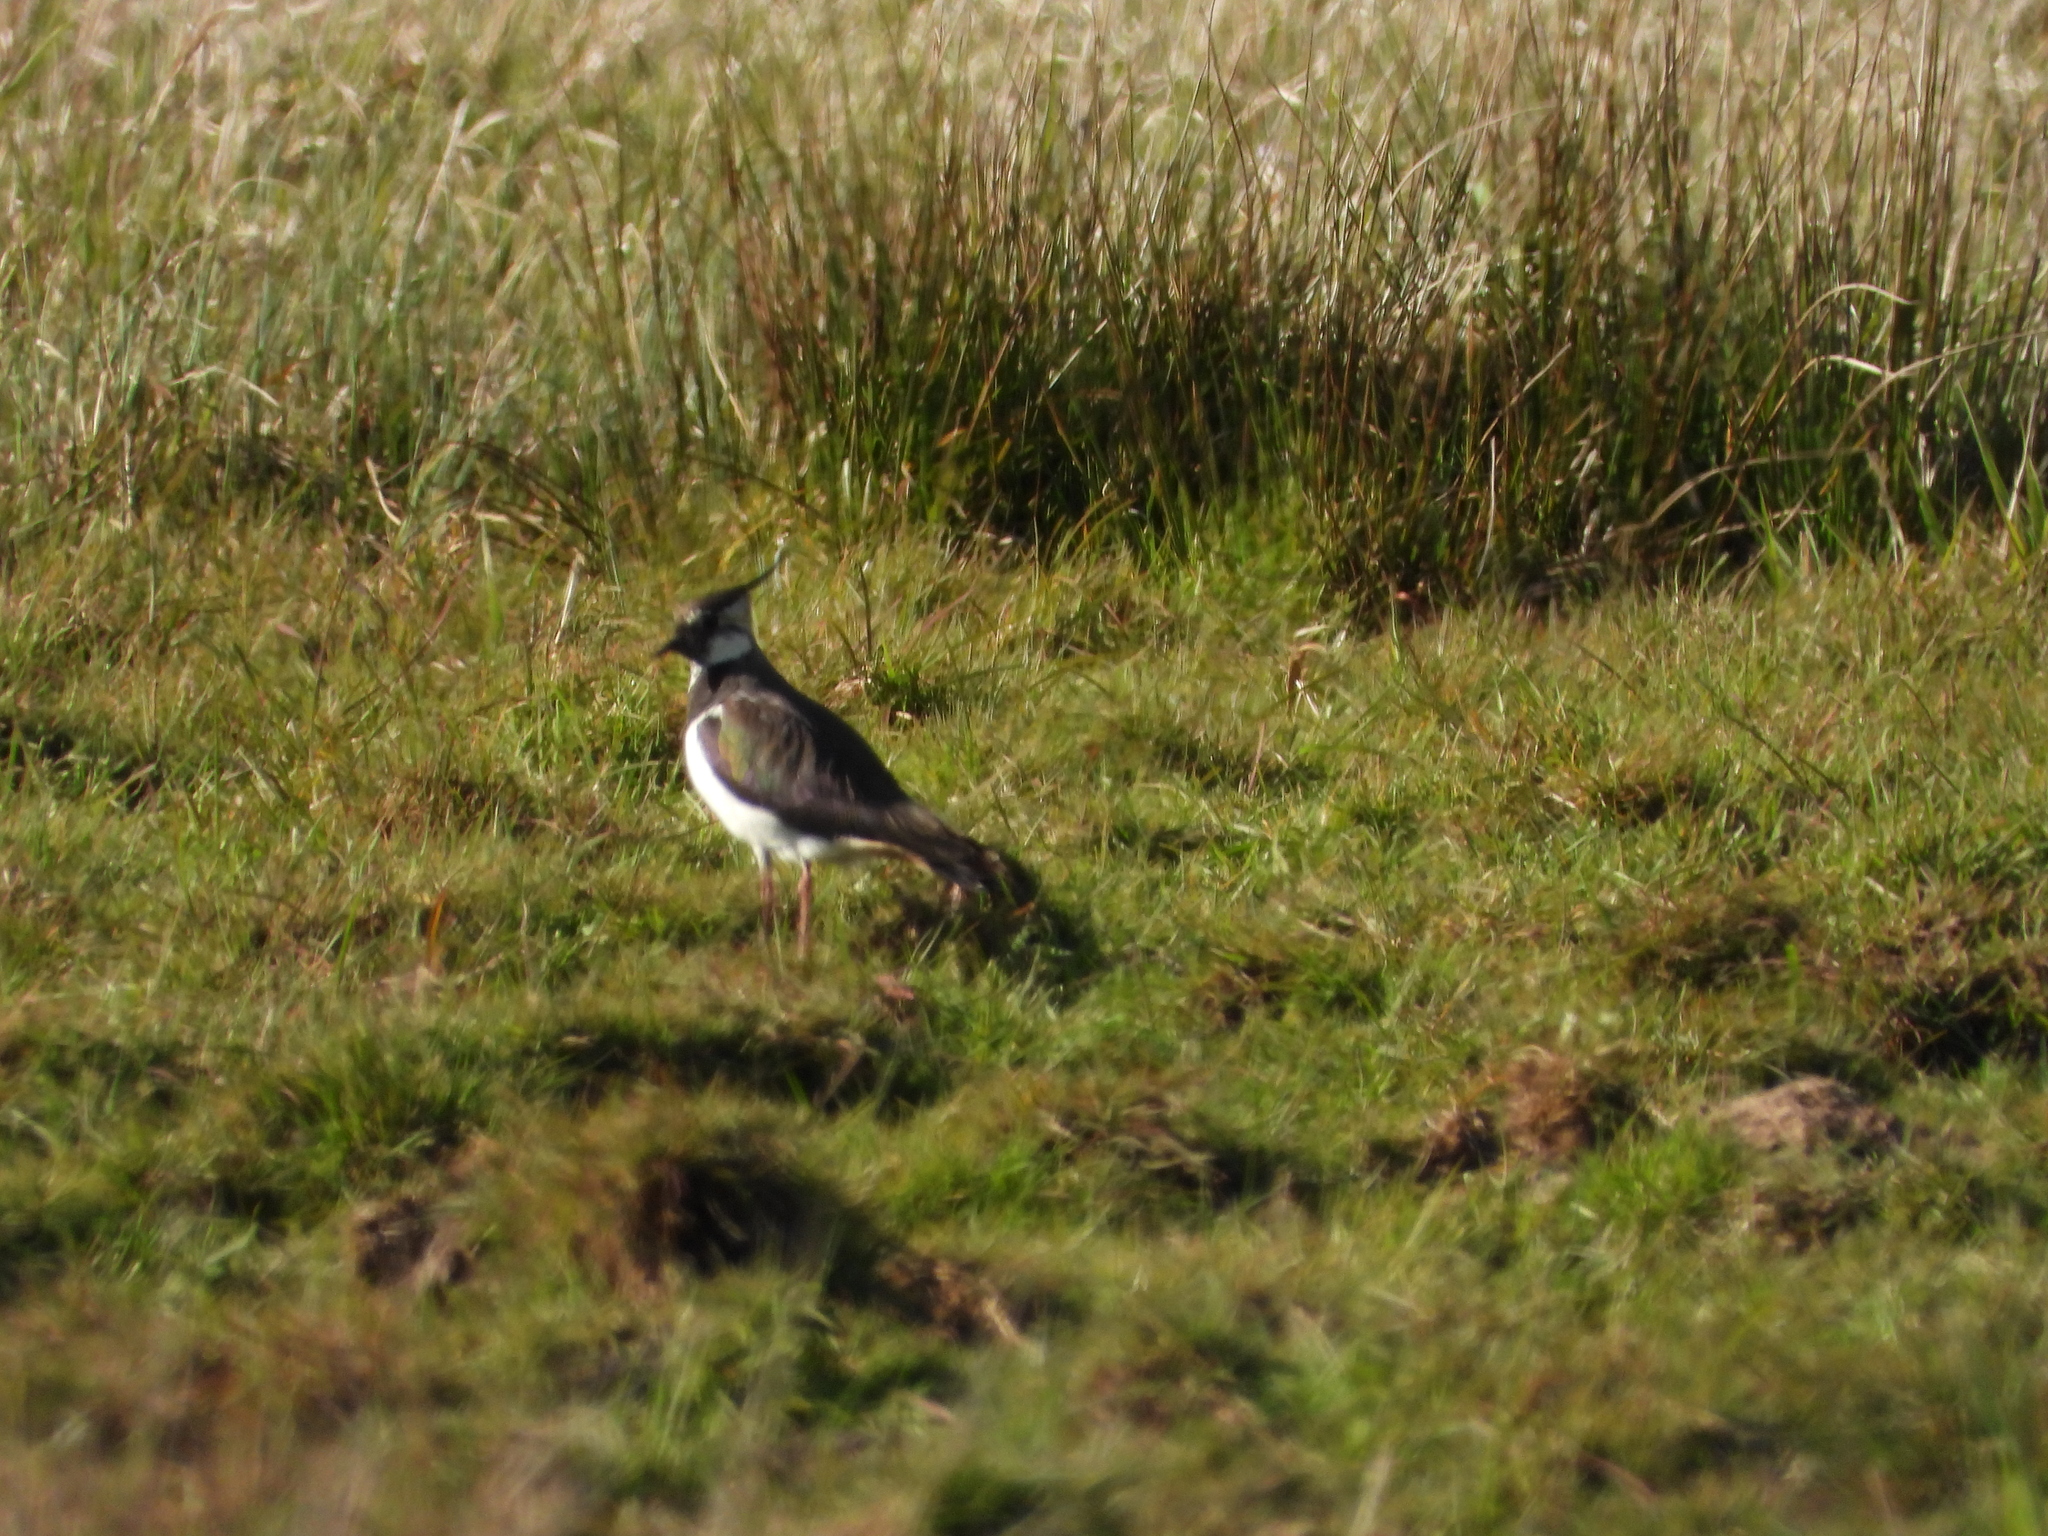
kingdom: Animalia
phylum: Chordata
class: Aves
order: Charadriiformes
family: Charadriidae
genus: Vanellus
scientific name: Vanellus vanellus
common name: Northern lapwing
